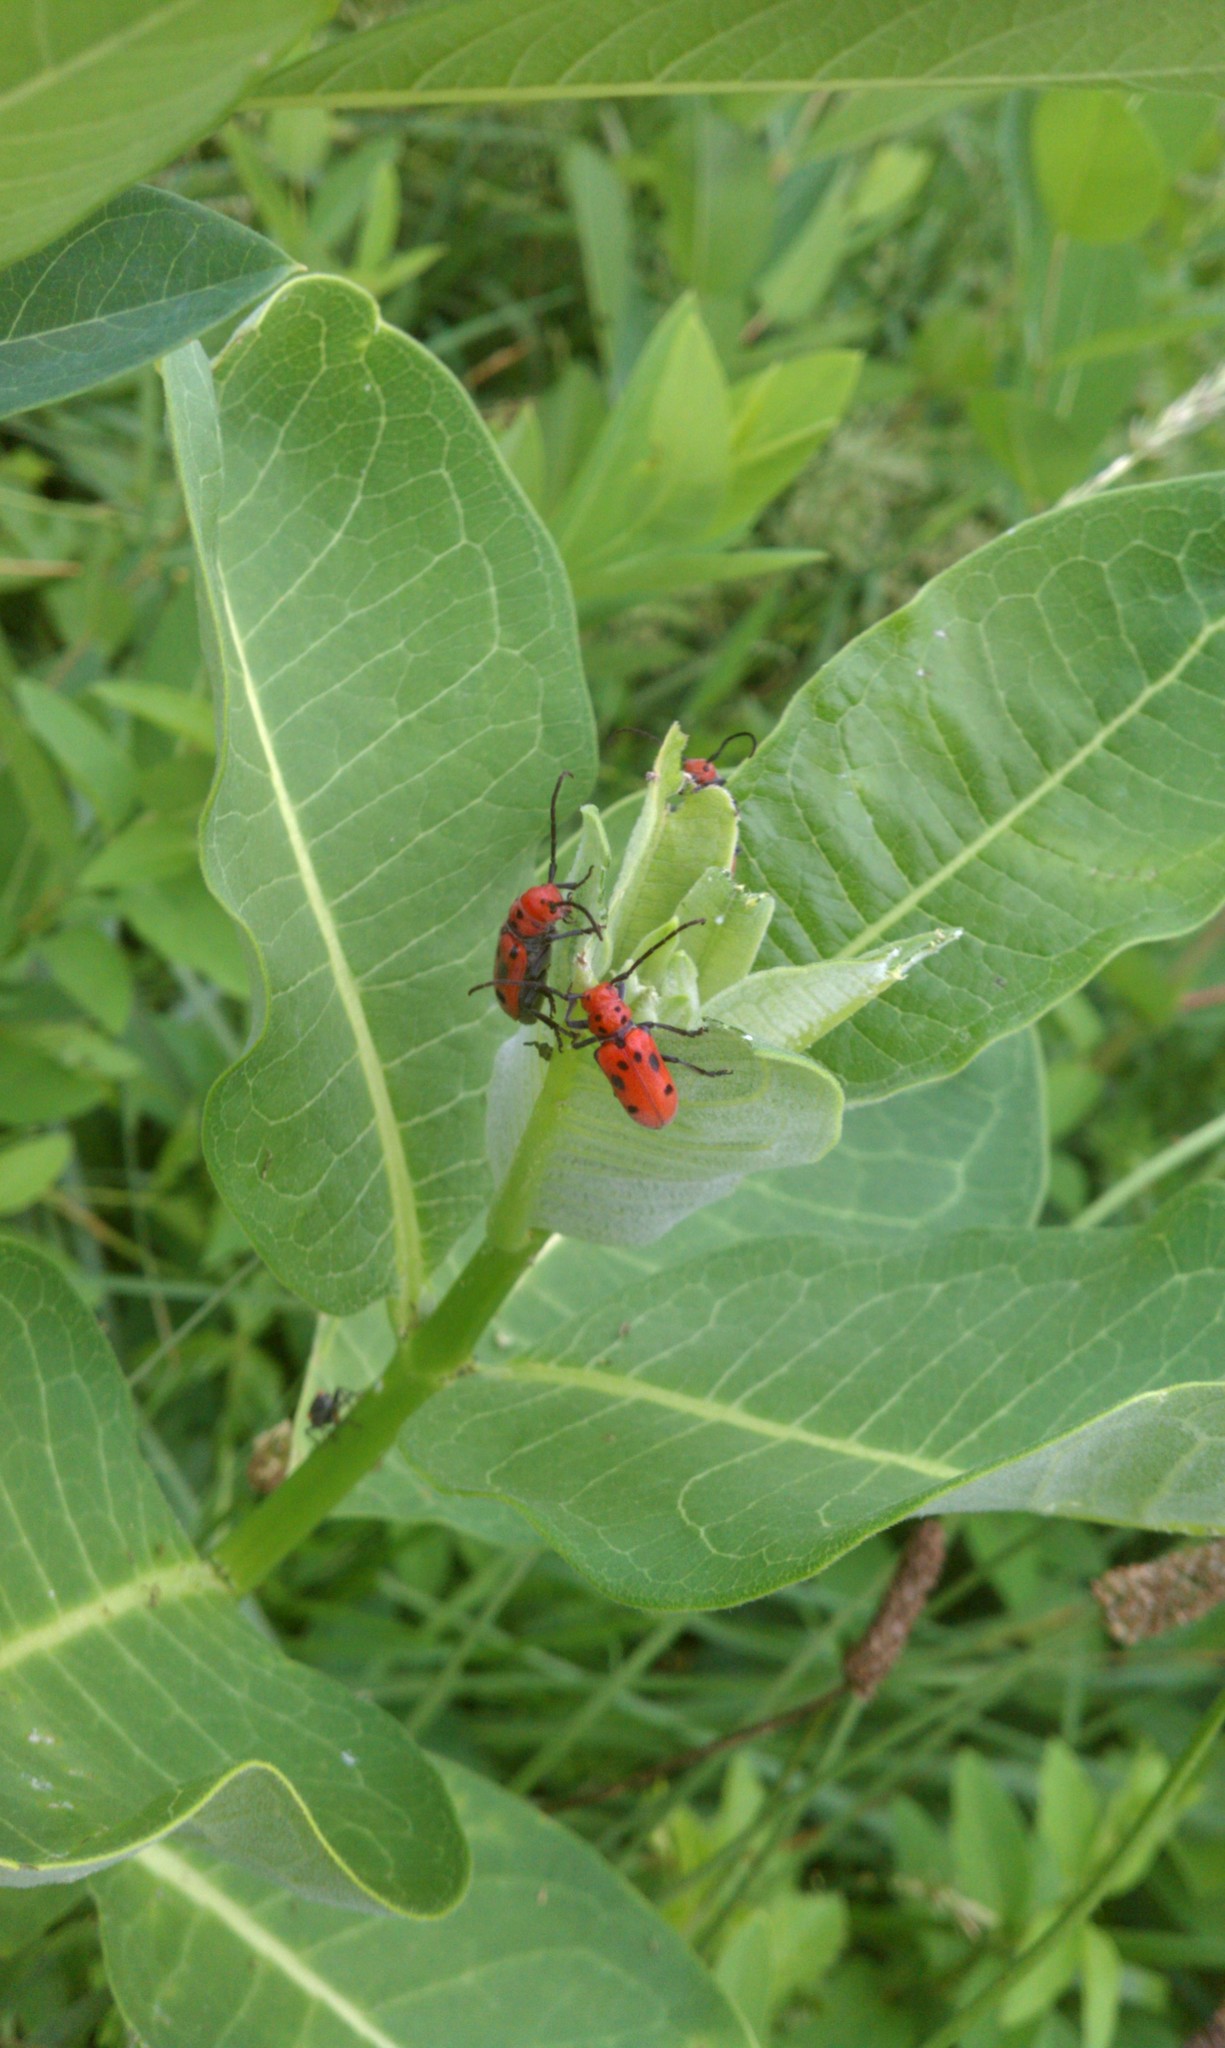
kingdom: Animalia
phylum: Arthropoda
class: Insecta
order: Coleoptera
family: Cerambycidae
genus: Tetraopes
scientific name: Tetraopes tetrophthalmus
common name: Red milkweed beetle
